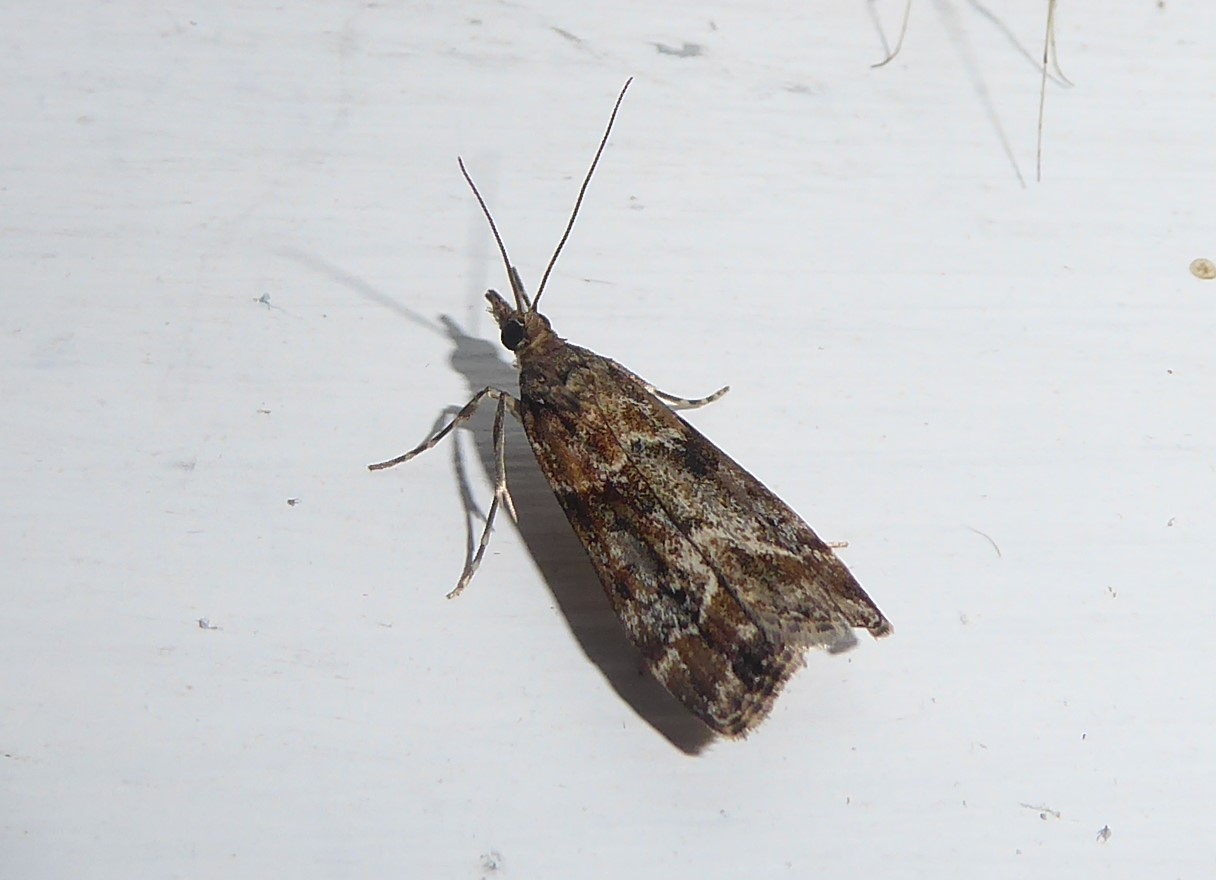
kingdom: Animalia
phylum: Arthropoda
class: Insecta
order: Lepidoptera
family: Crambidae
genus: Eudonia
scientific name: Eudonia legnota
